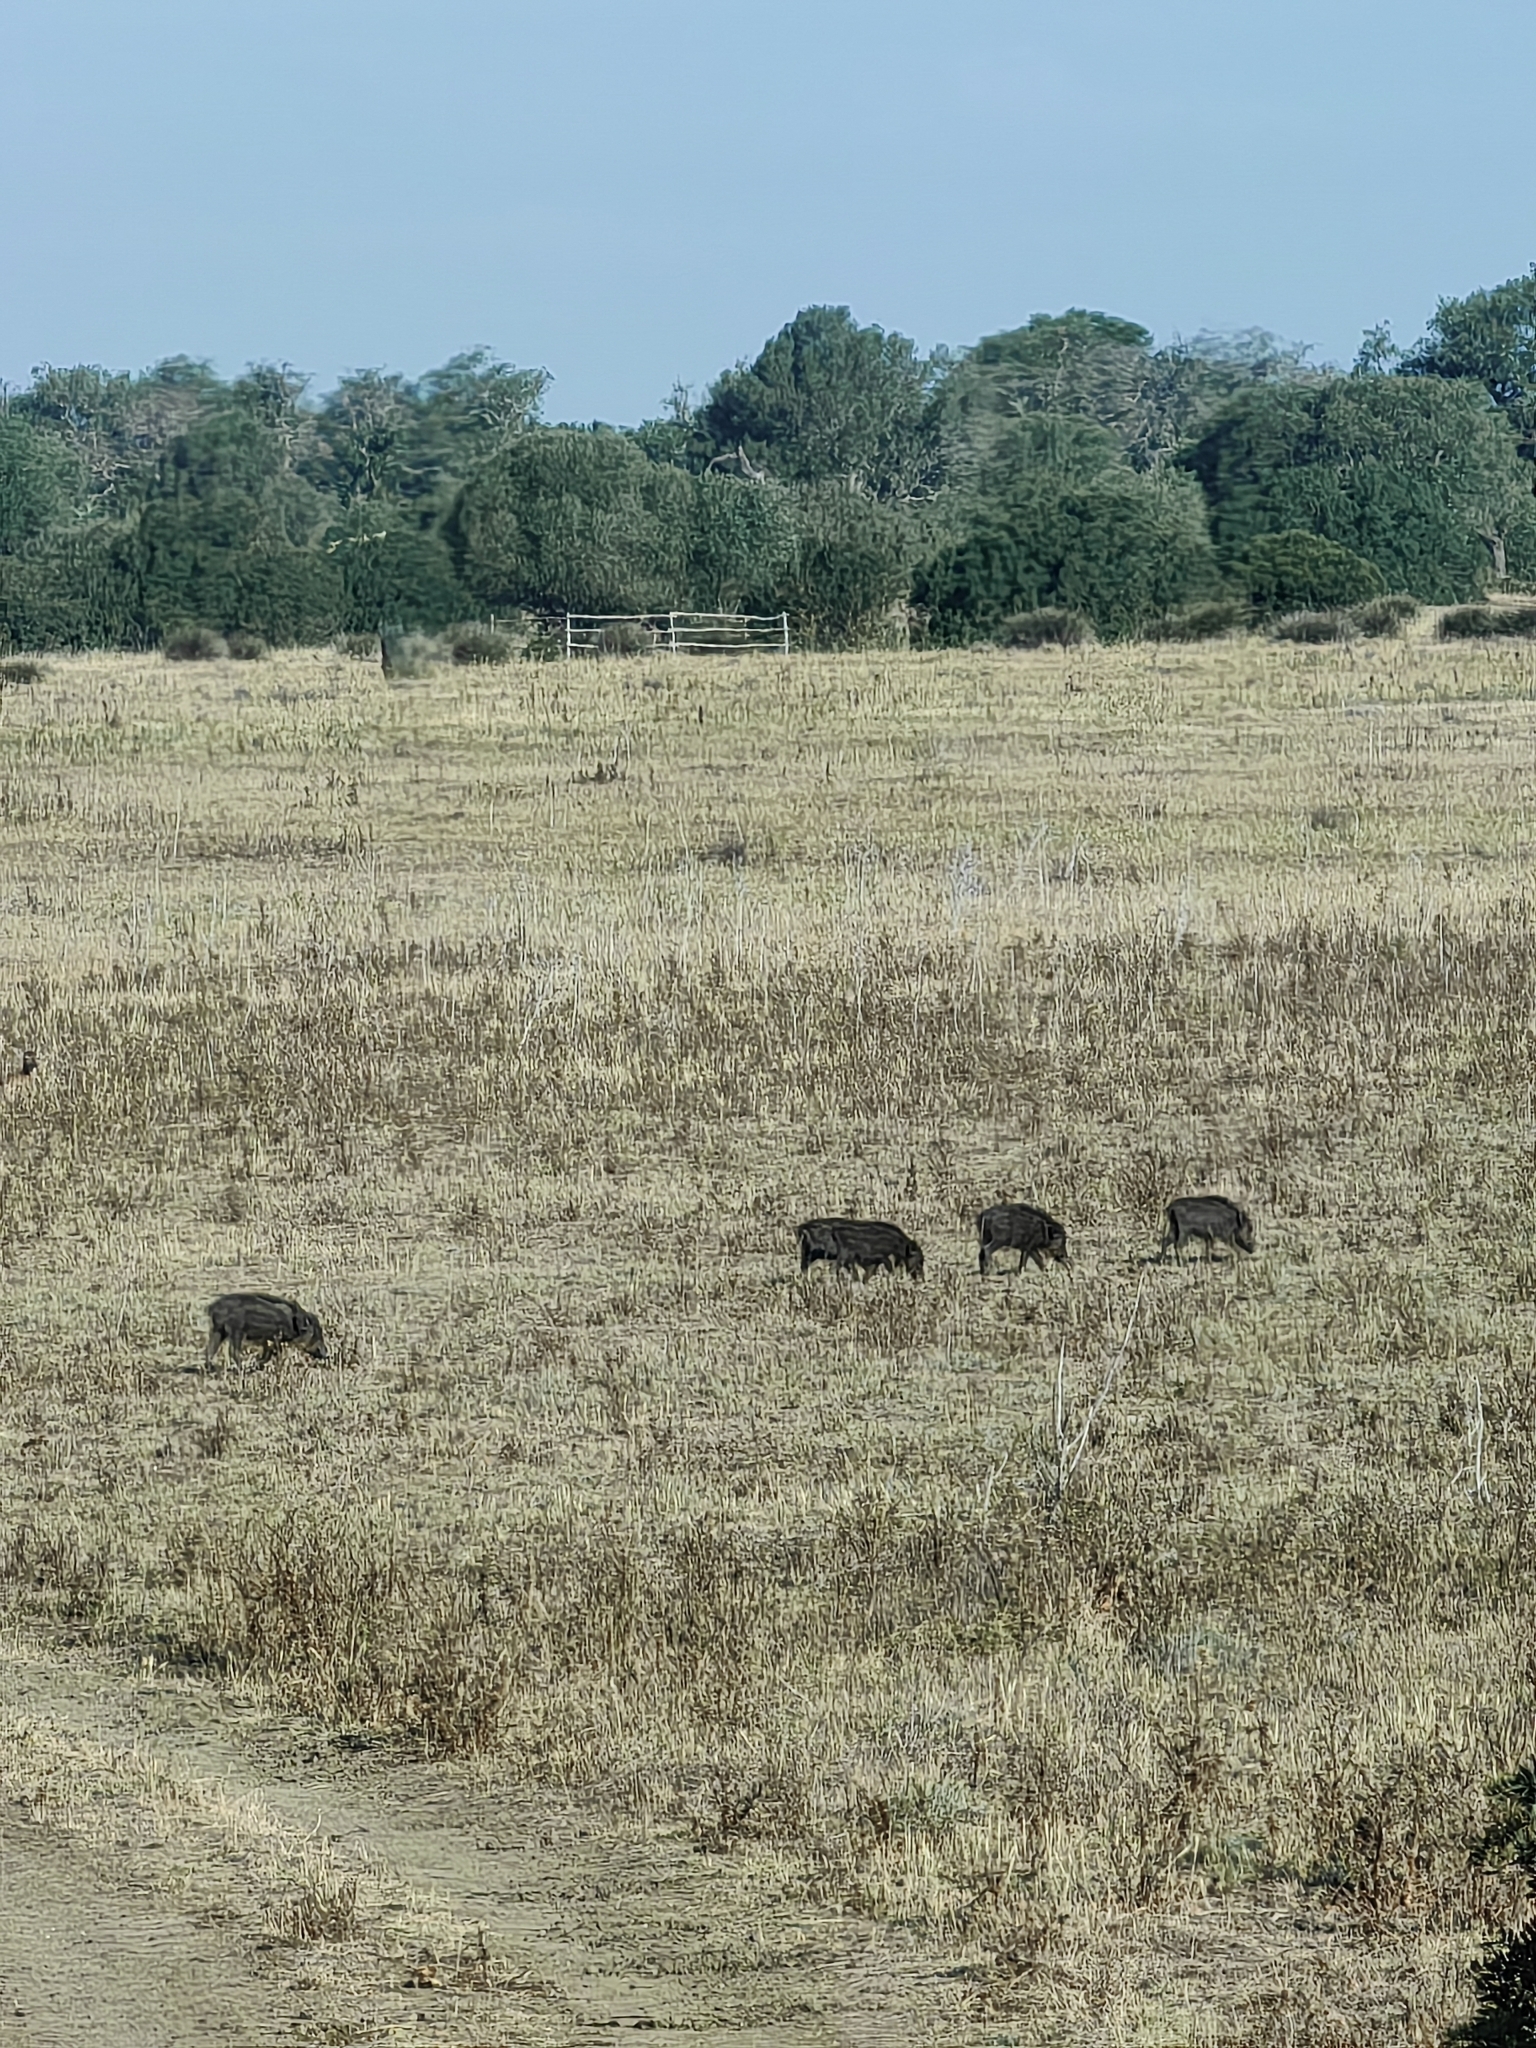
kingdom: Animalia
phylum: Chordata
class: Mammalia
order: Artiodactyla
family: Suidae
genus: Sus
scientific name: Sus scrofa
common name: Wild boar
